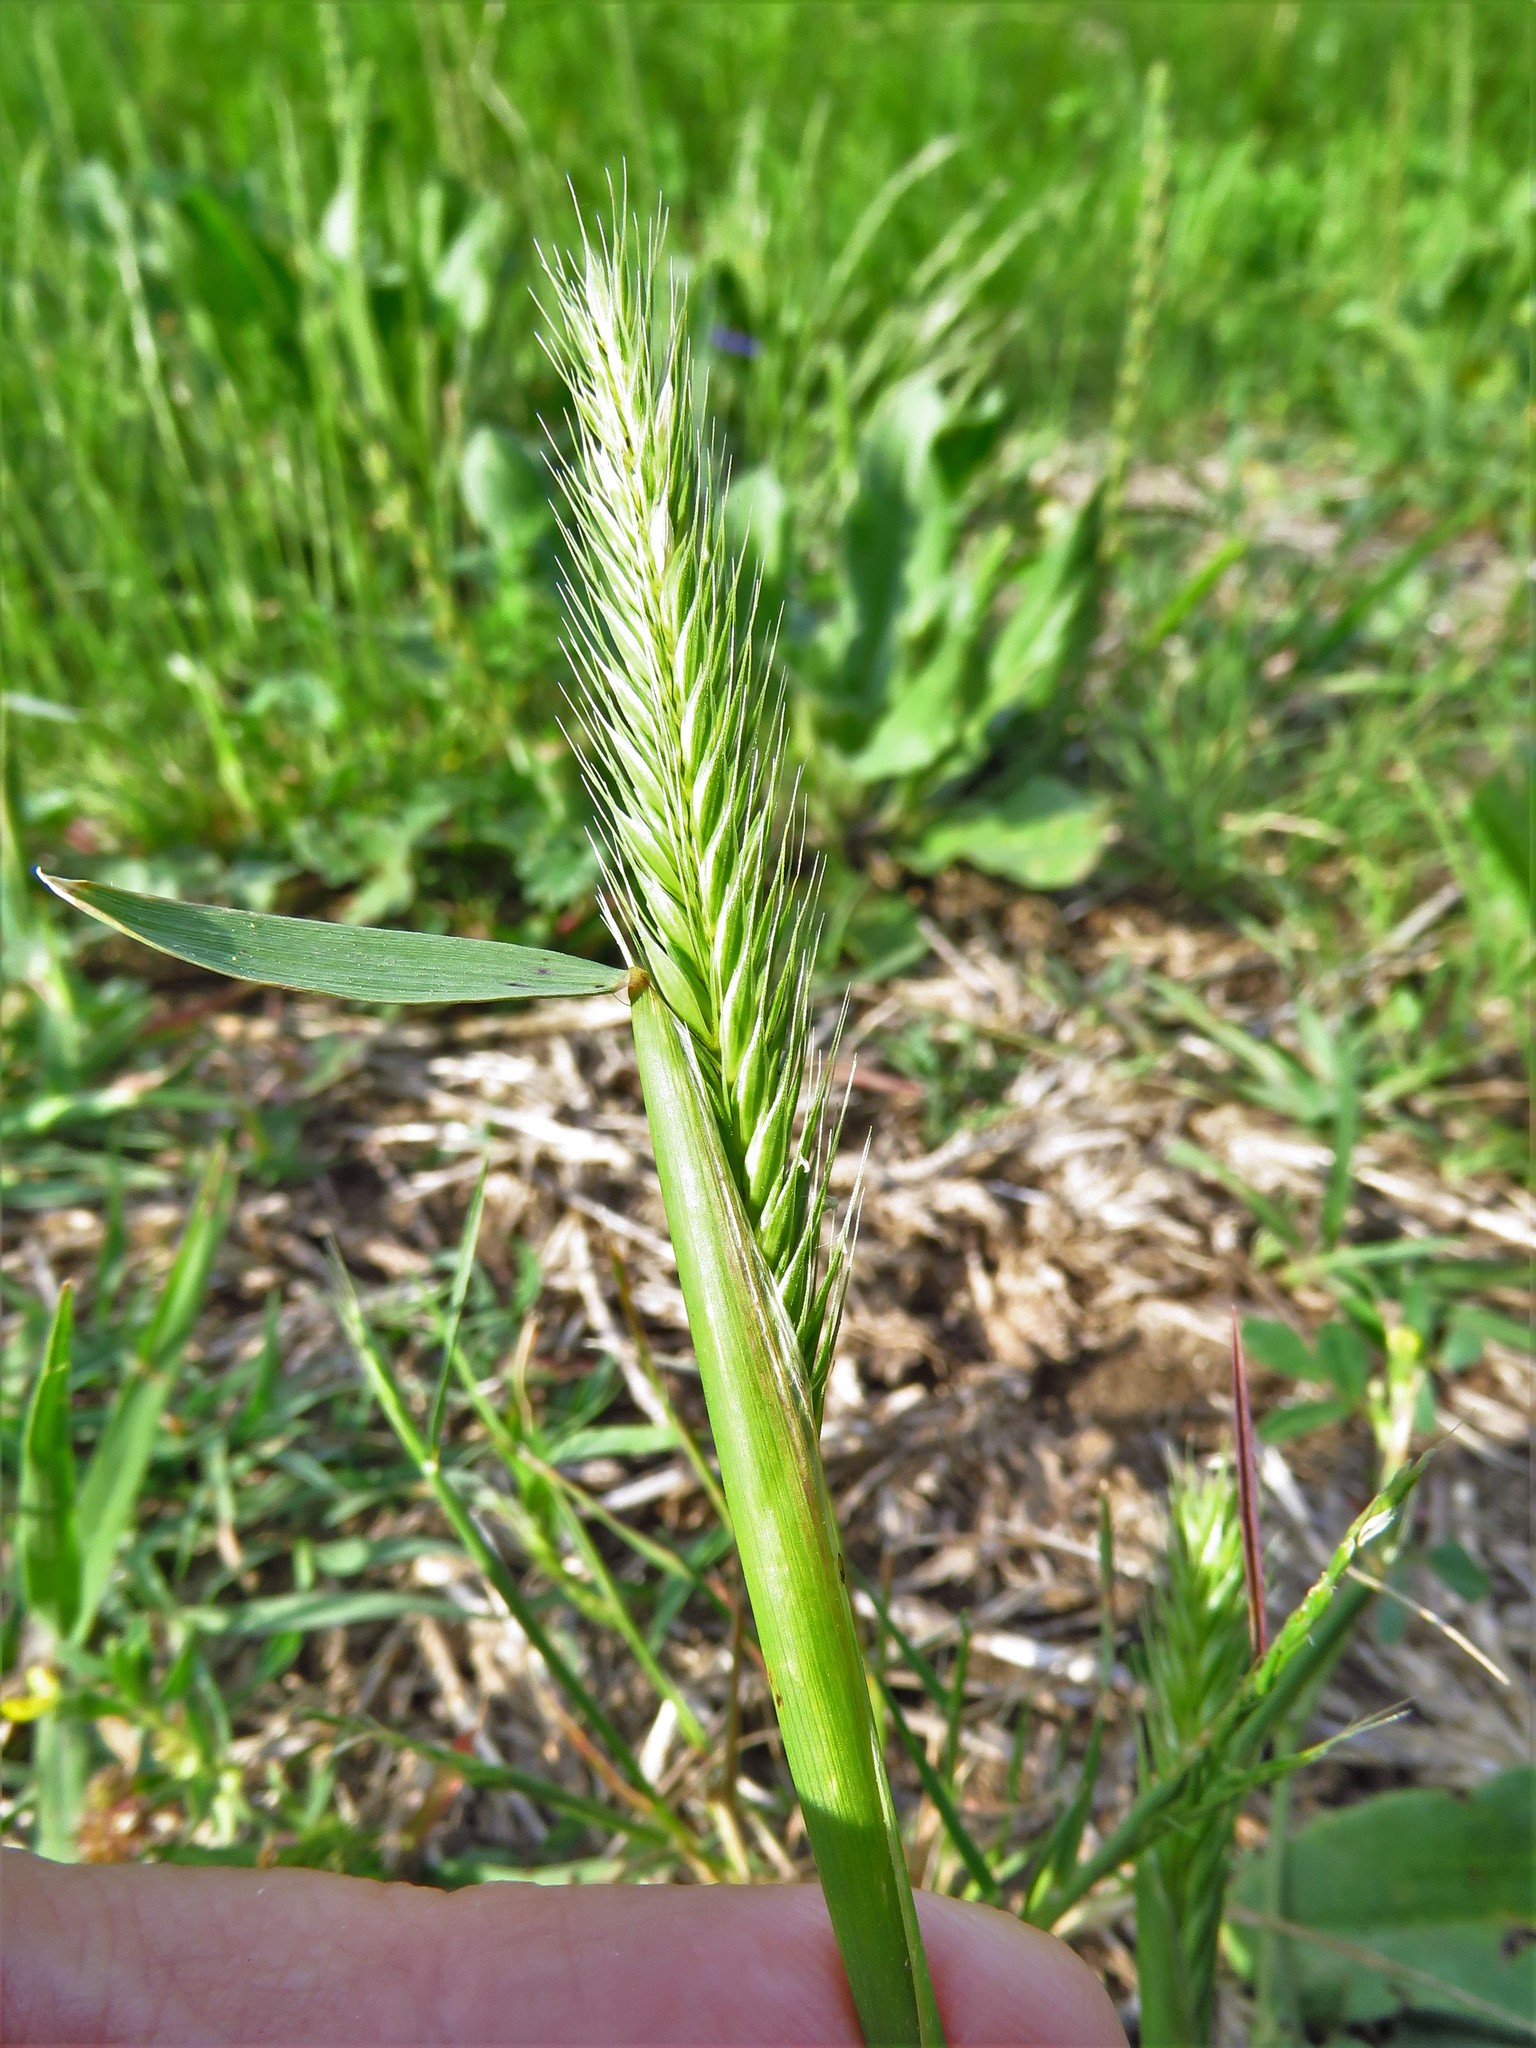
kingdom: Plantae
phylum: Tracheophyta
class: Liliopsida
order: Poales
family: Poaceae
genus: Hordeum
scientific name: Hordeum pusillum
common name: Little barley
